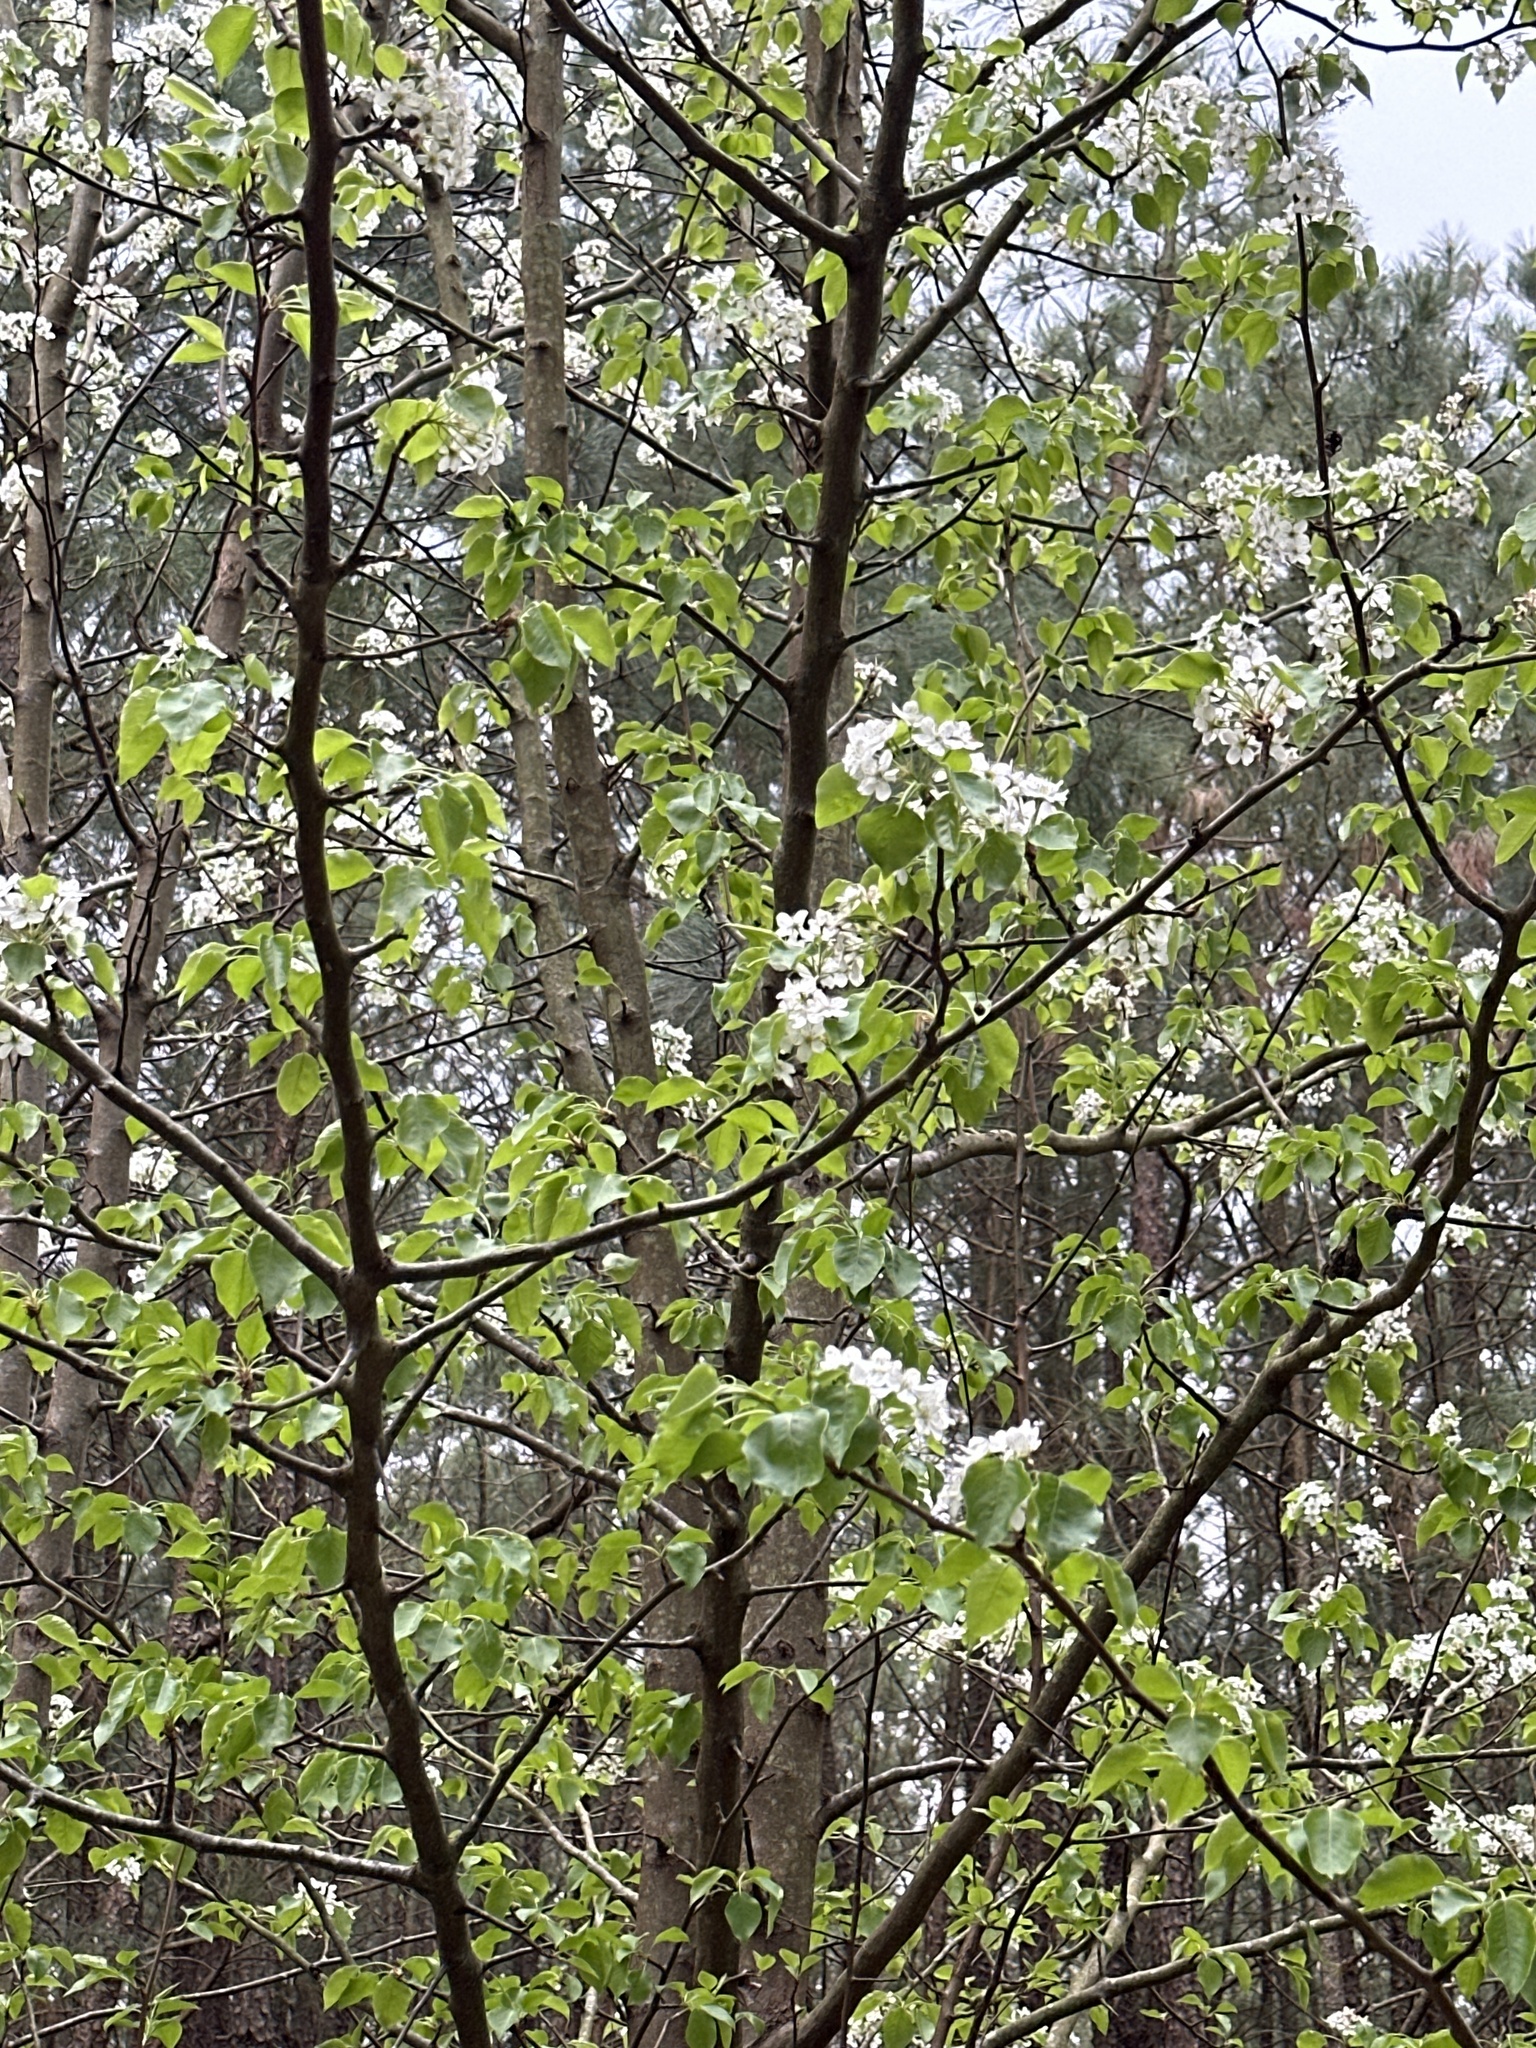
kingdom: Plantae
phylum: Tracheophyta
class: Magnoliopsida
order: Rosales
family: Rosaceae
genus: Pyrus
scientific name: Pyrus calleryana
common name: Callery pear
